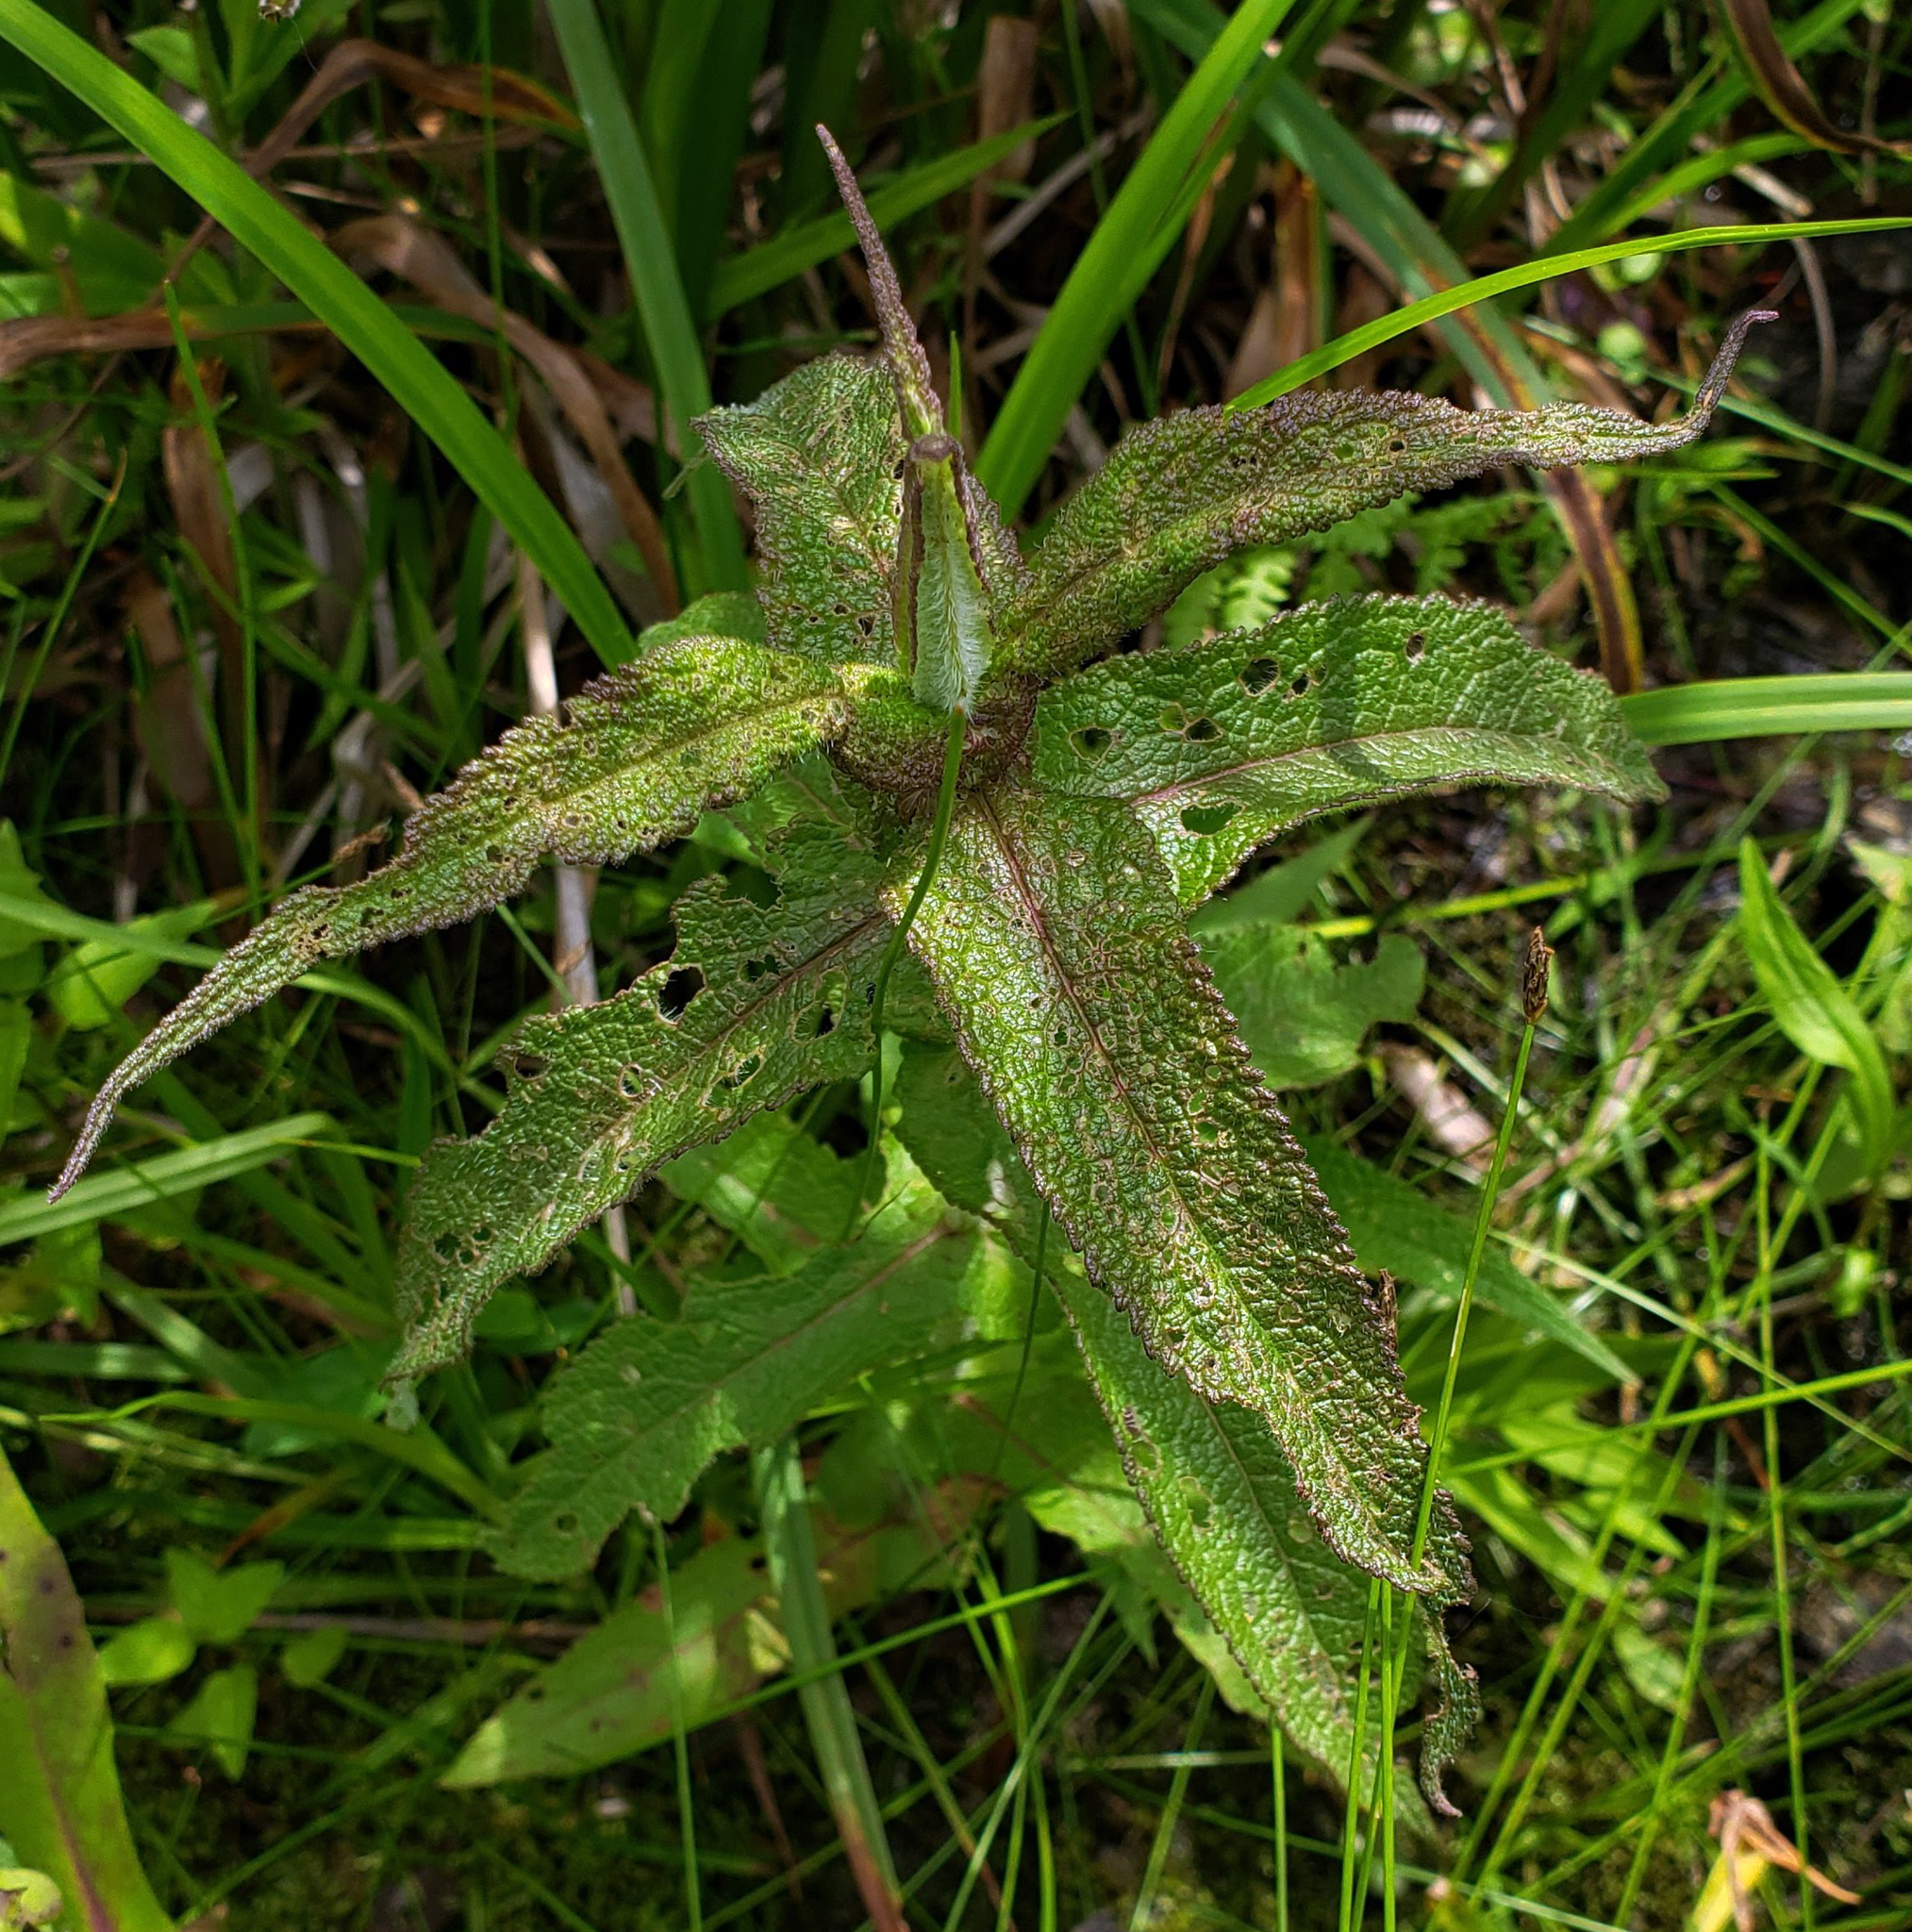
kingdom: Plantae
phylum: Tracheophyta
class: Magnoliopsida
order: Asterales
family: Asteraceae
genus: Eupatorium
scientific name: Eupatorium perfoliatum
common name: Boneset
